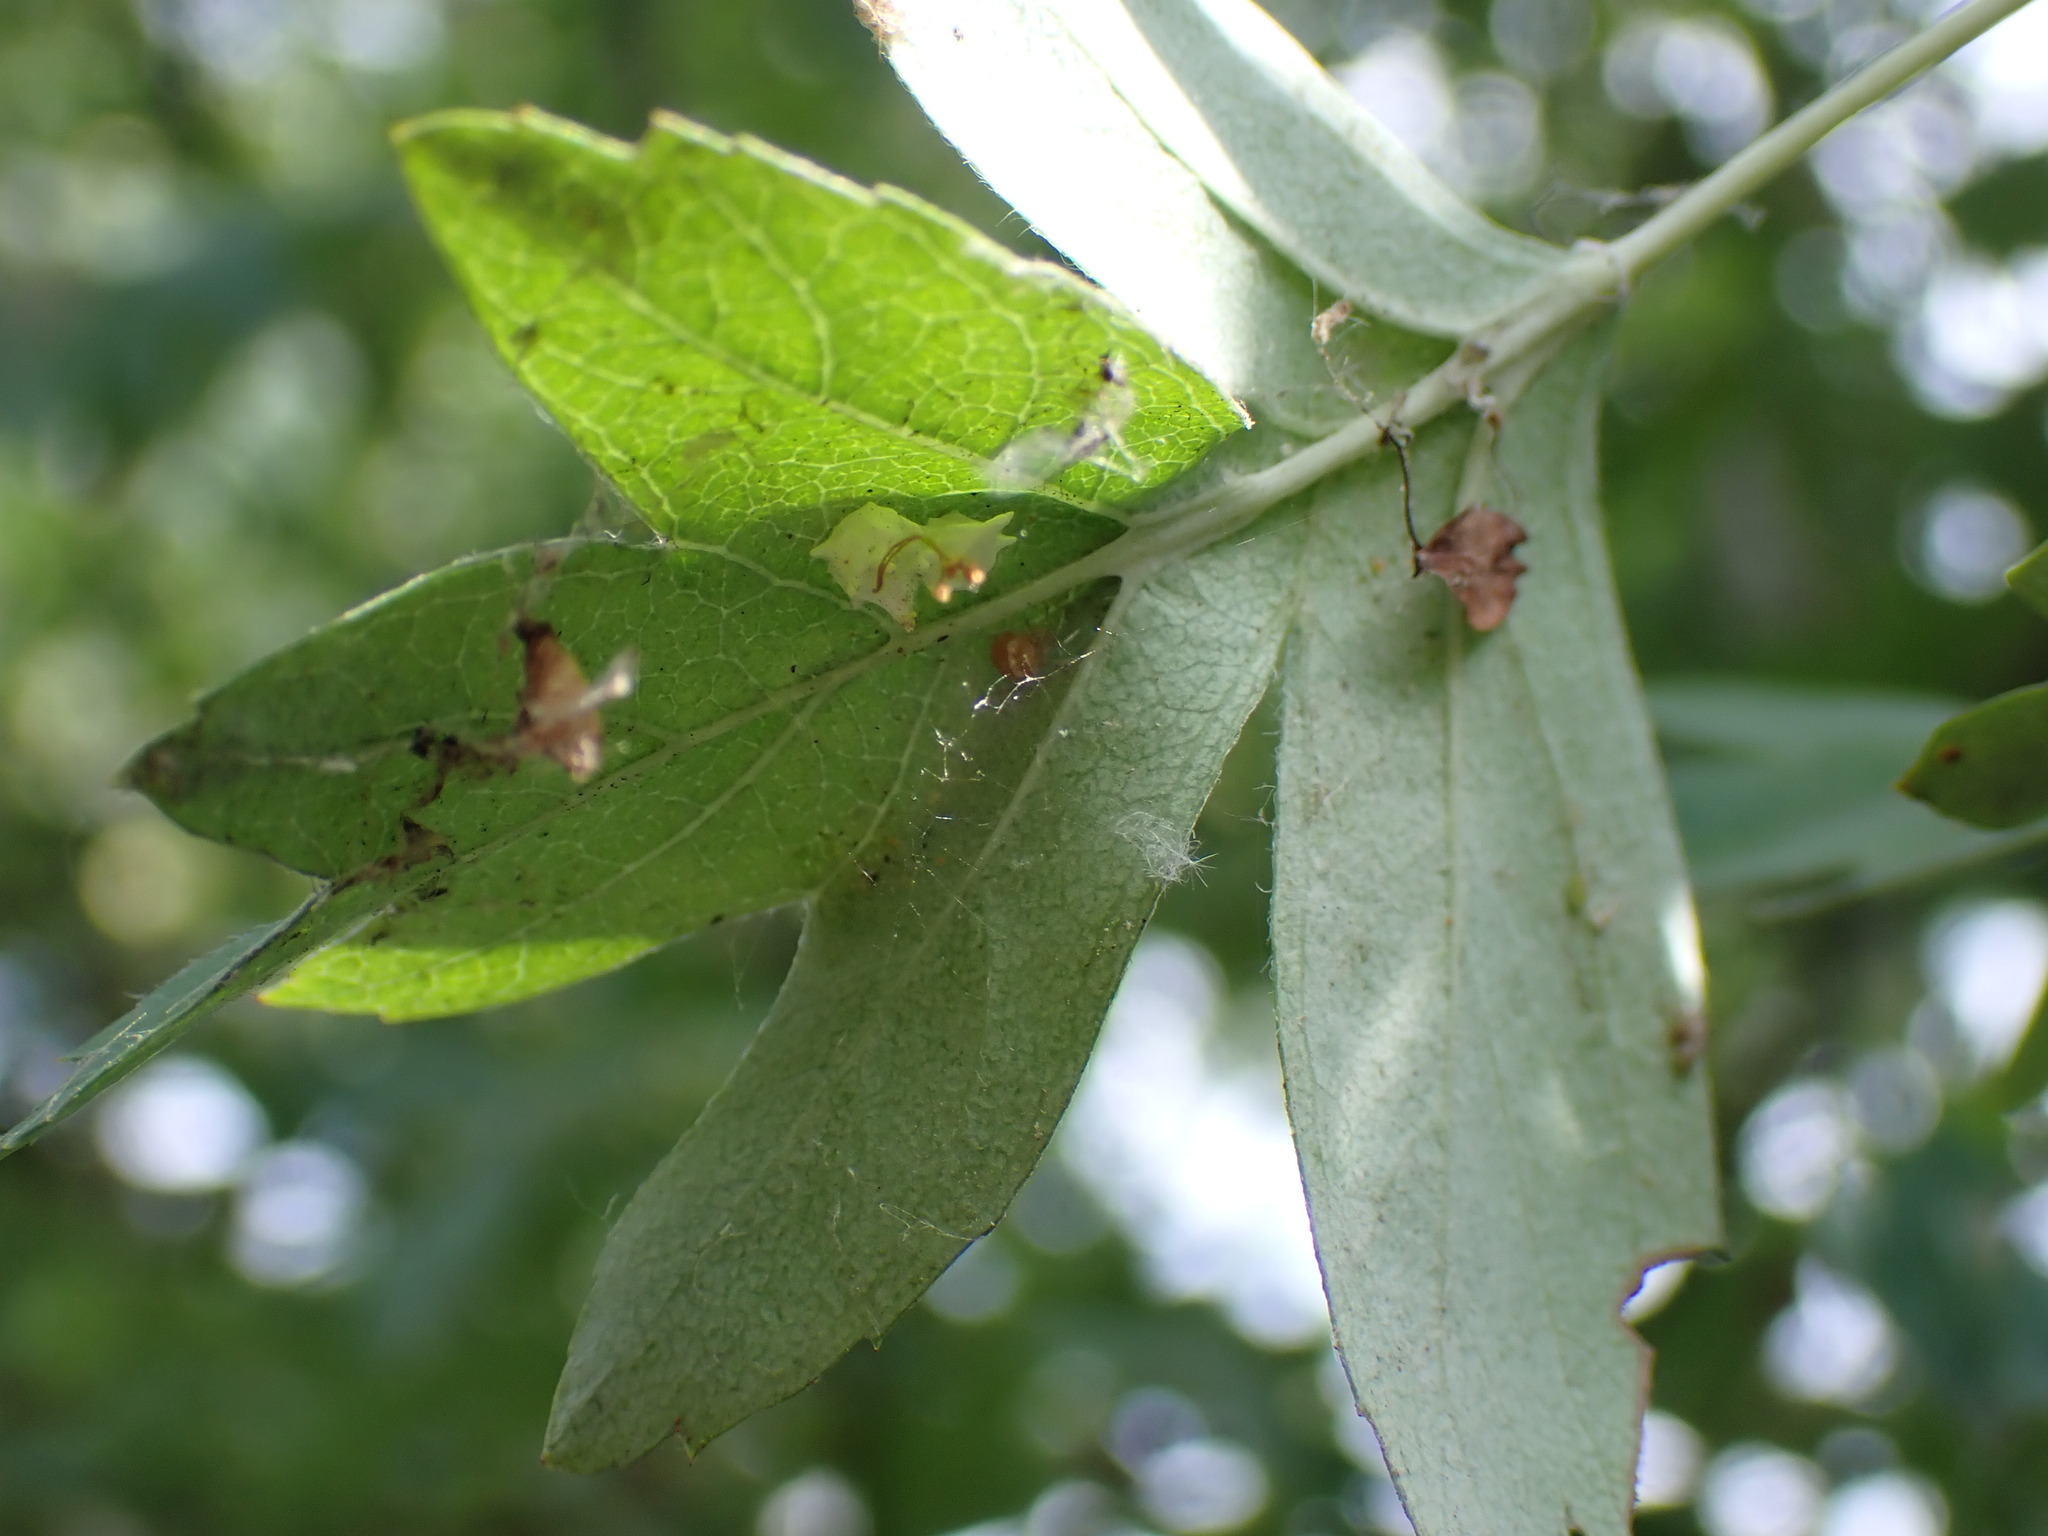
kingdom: Animalia
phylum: Arthropoda
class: Arachnida
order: Araneae
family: Theridiidae
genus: Paidiscura
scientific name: Paidiscura pallens
